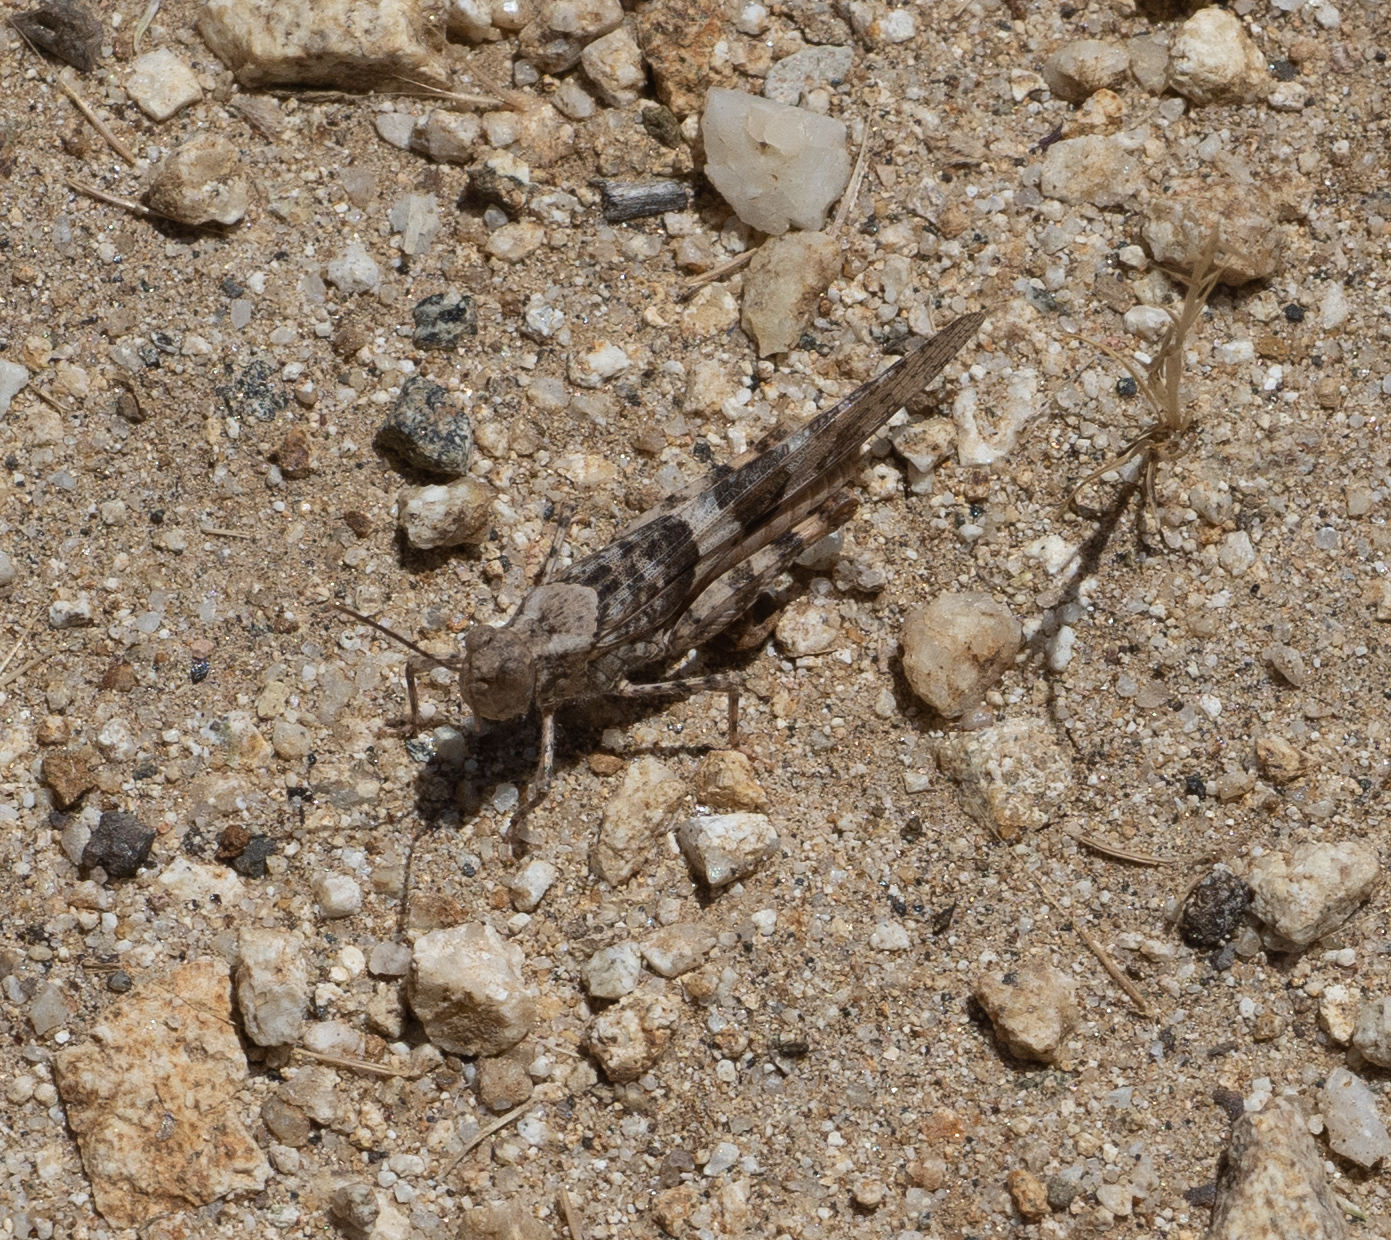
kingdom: Animalia
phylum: Arthropoda
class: Insecta
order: Orthoptera
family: Acrididae
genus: Trimerotropis
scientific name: Trimerotropis pallidipennis
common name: Pallid-winged grasshopper
